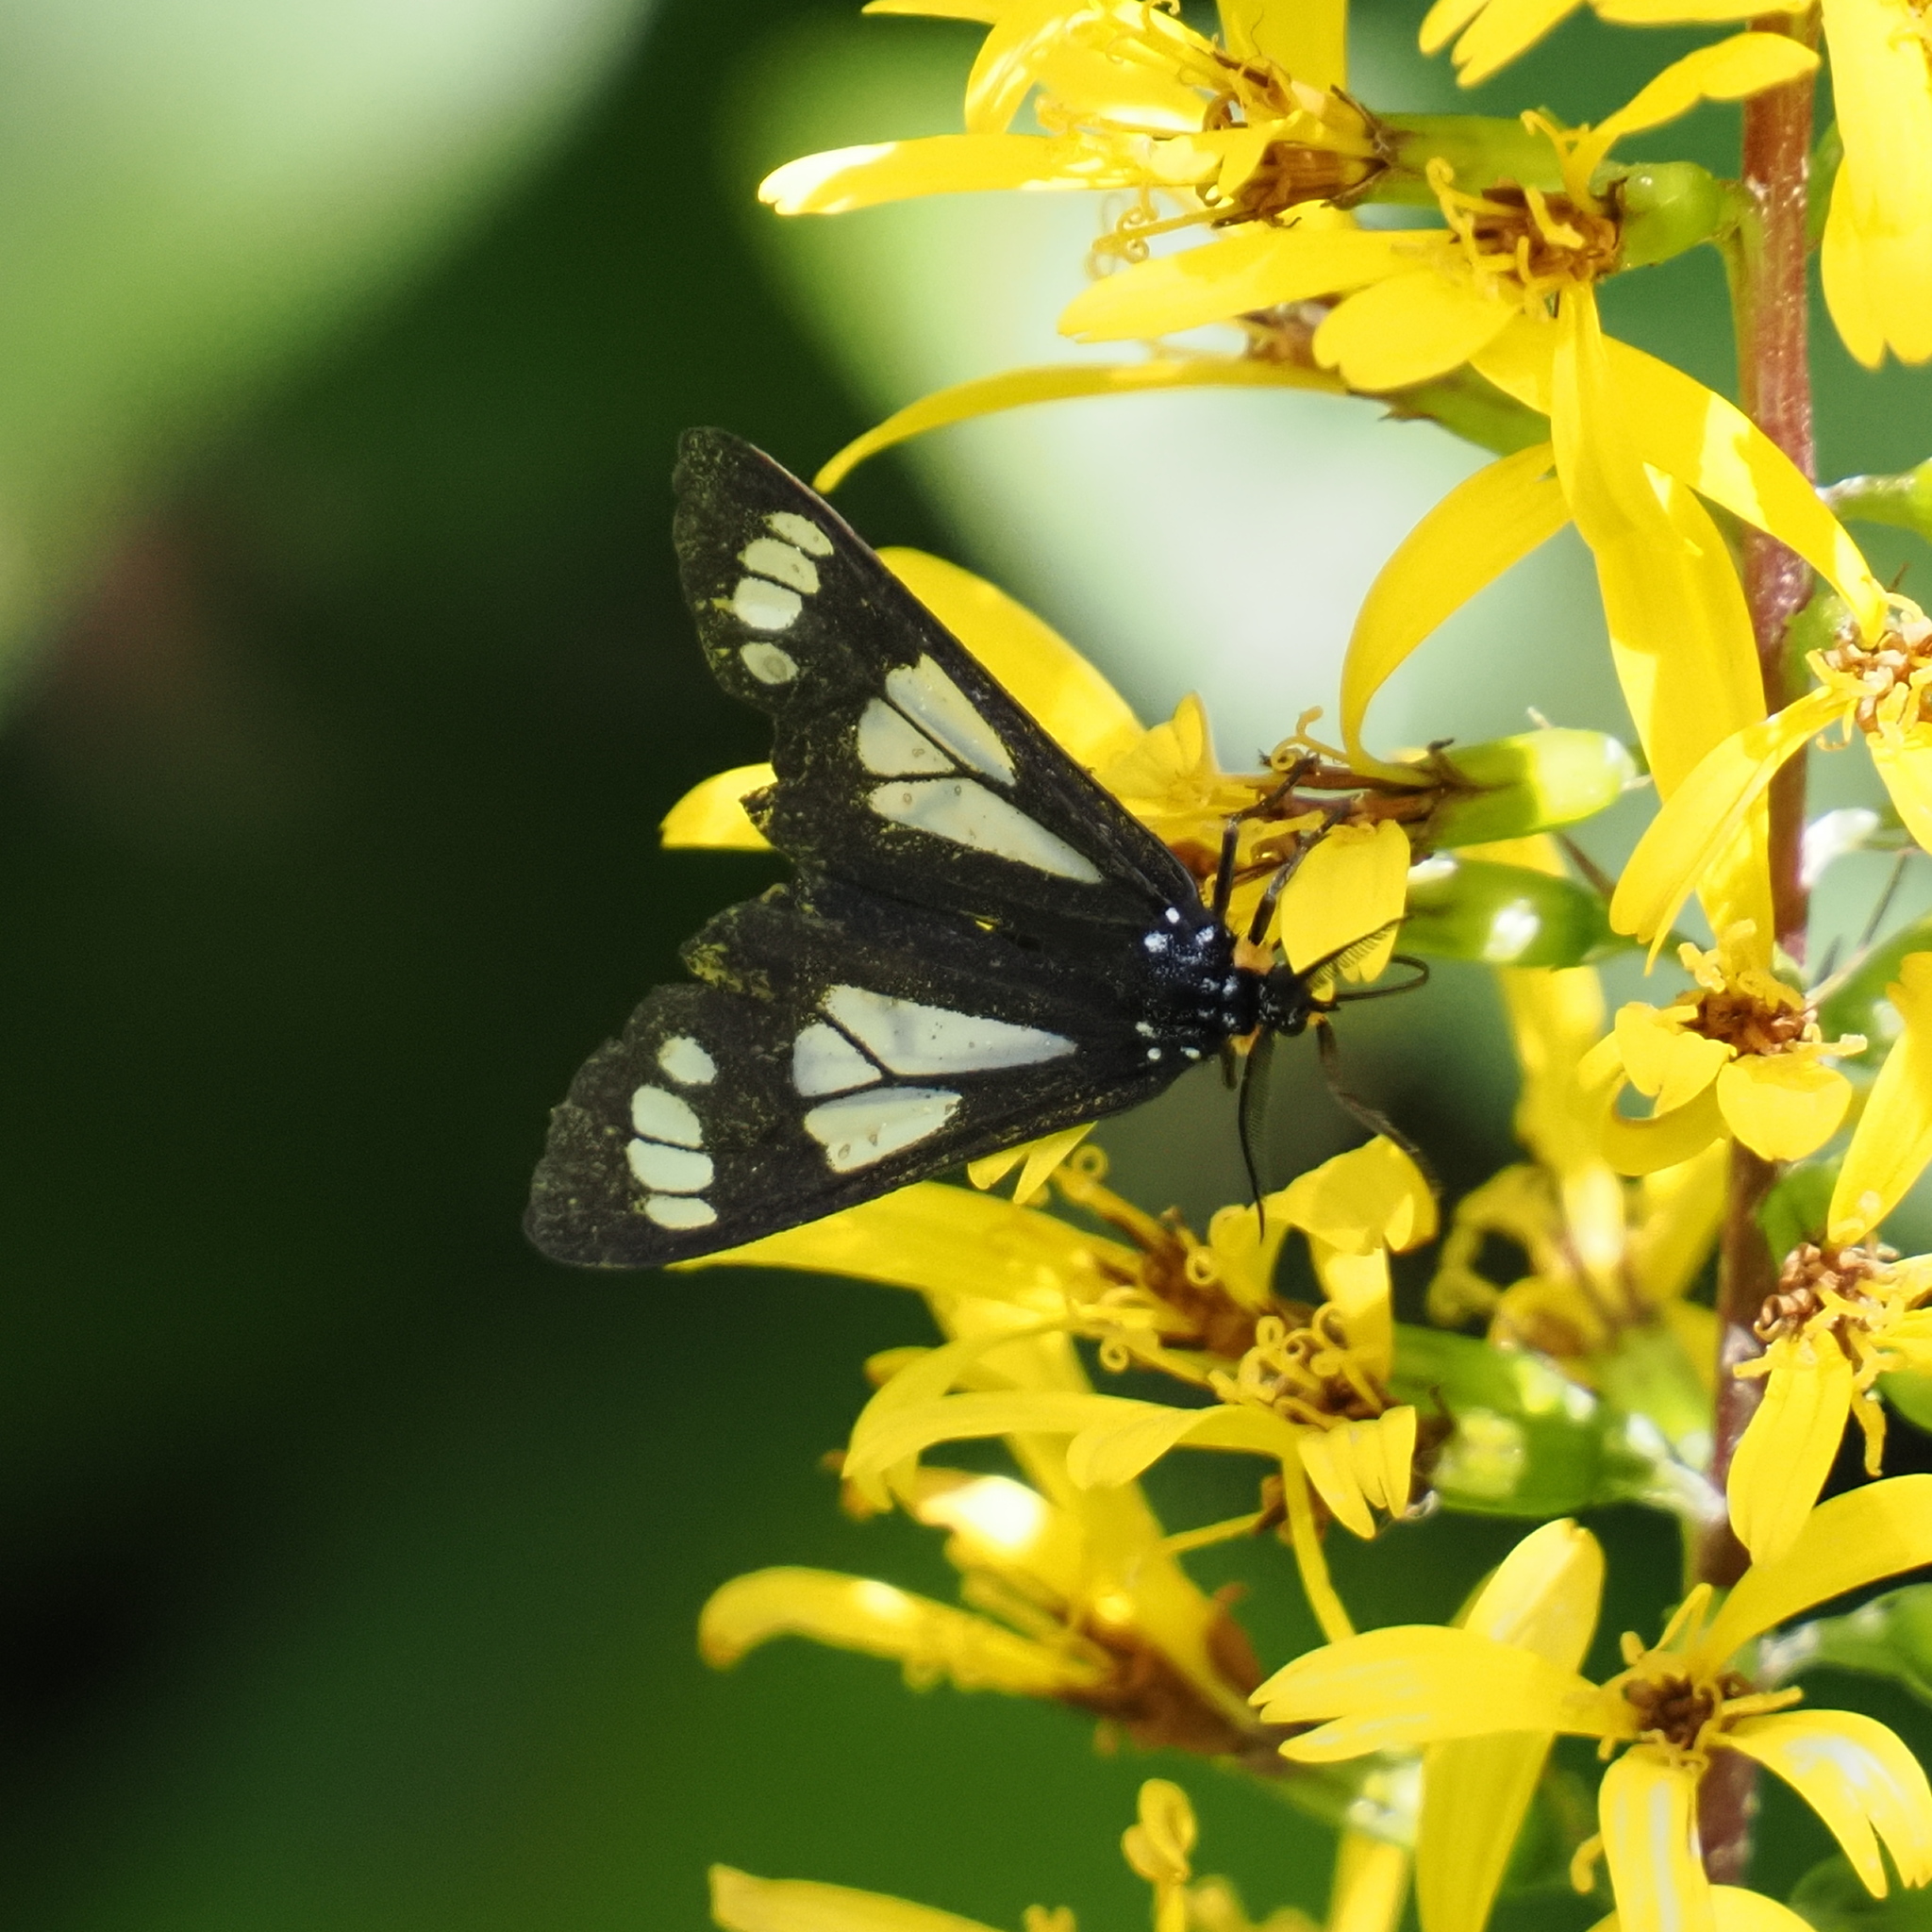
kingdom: Animalia
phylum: Arthropoda
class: Insecta
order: Lepidoptera
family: Erebidae
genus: Gnophaela
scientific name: Gnophaela vermiculata
